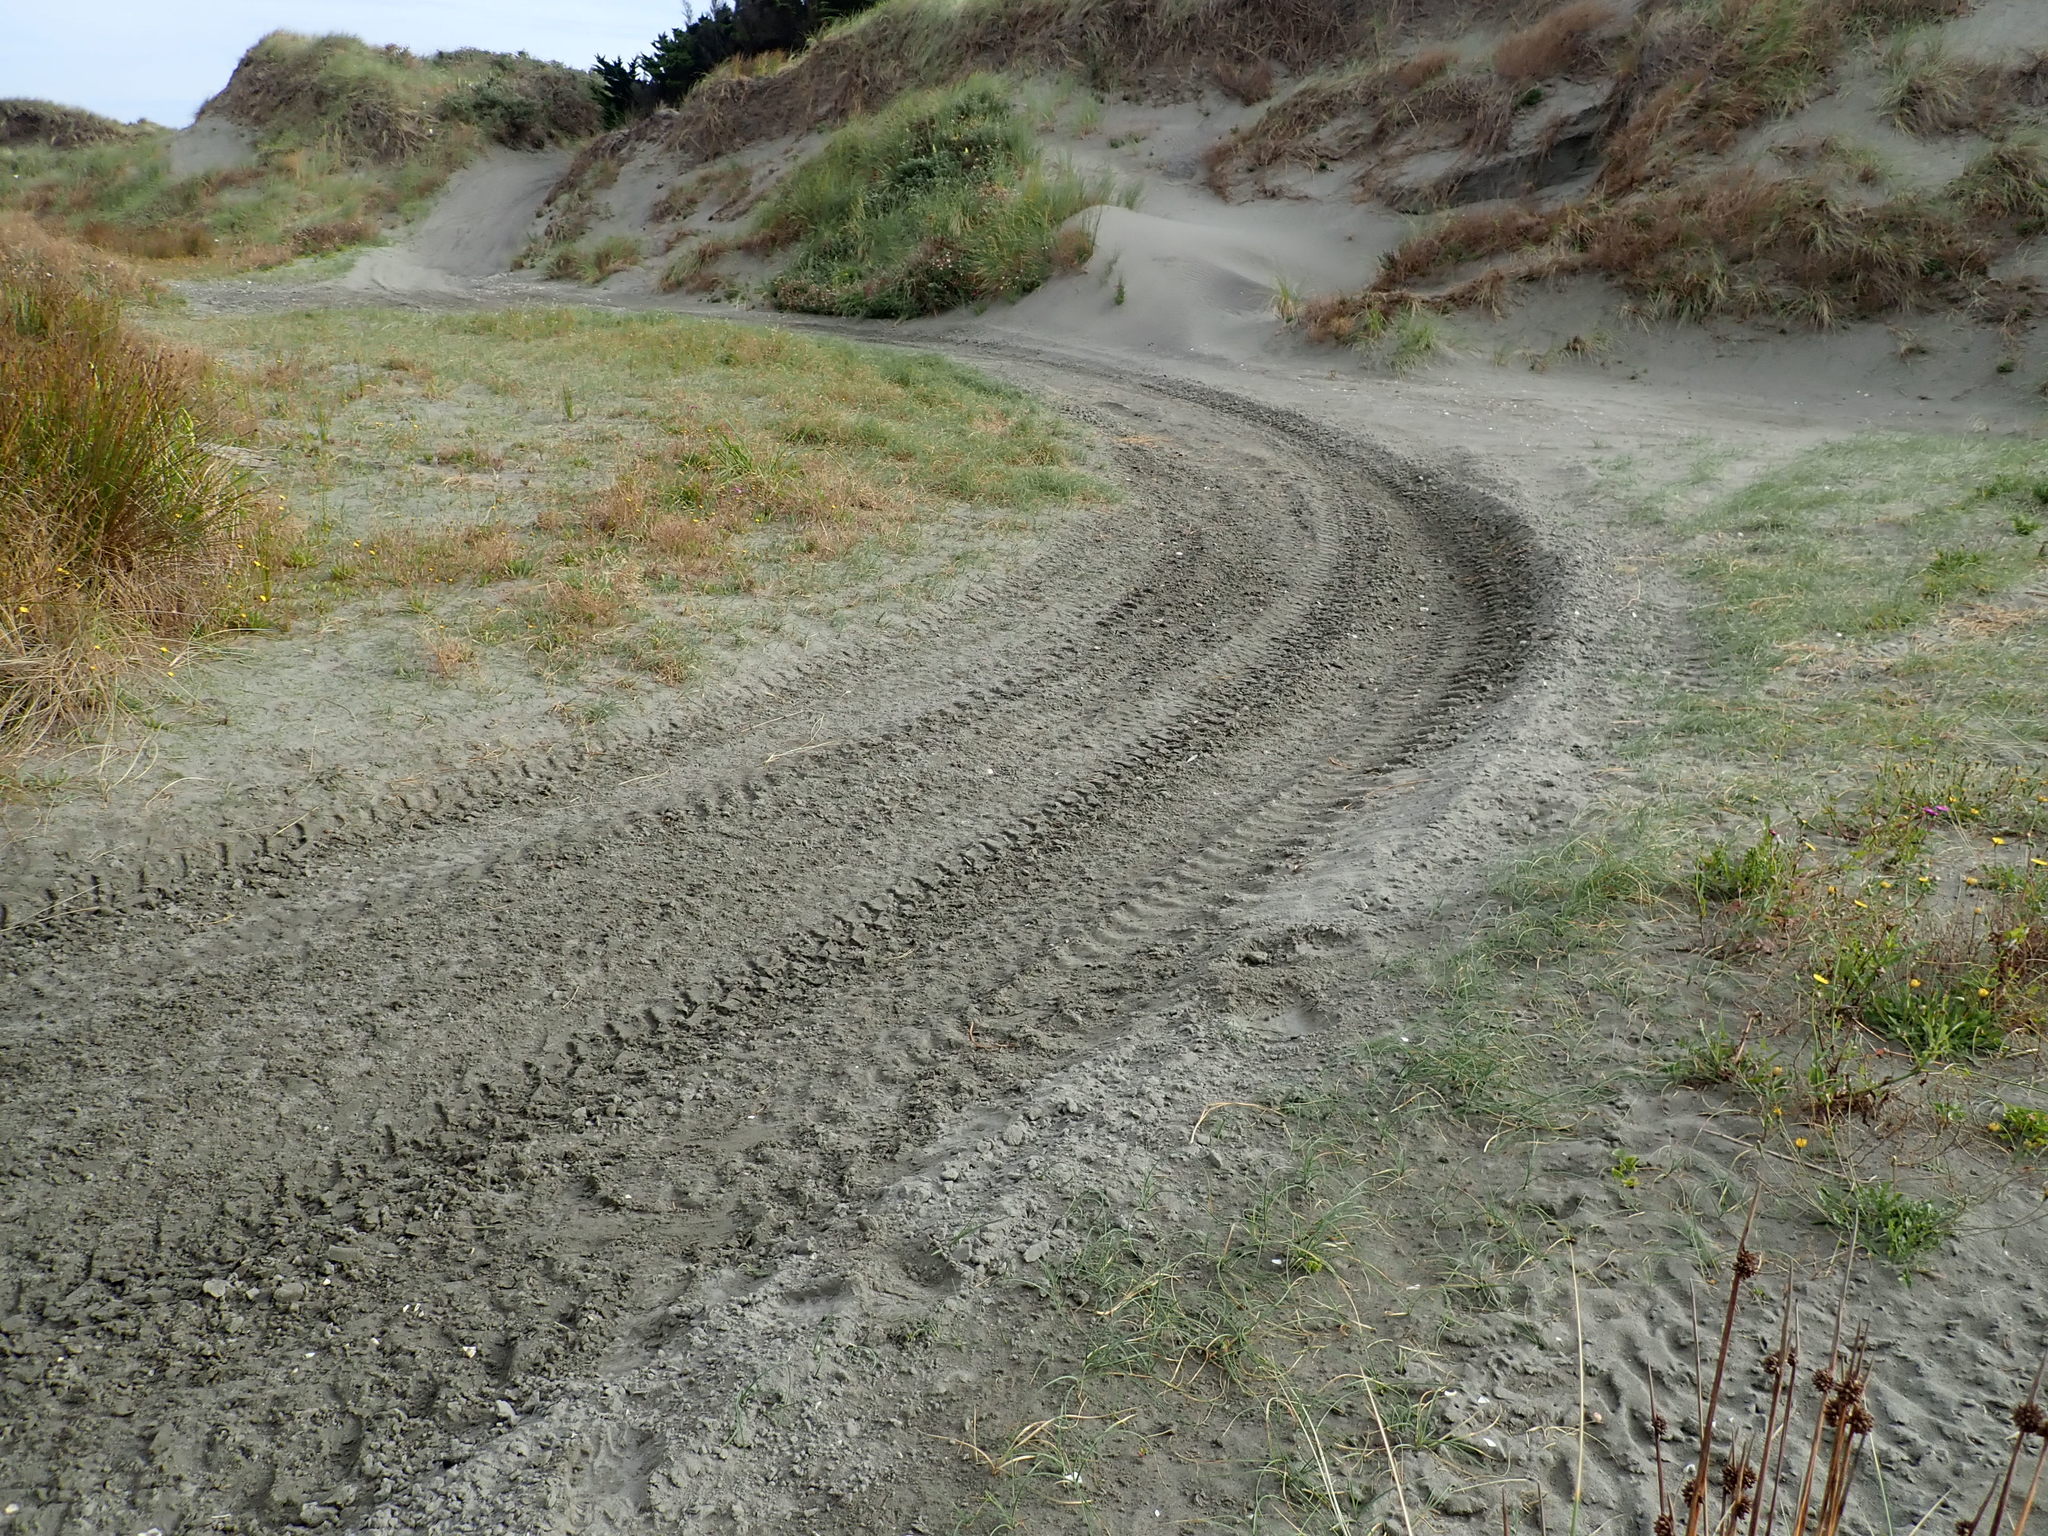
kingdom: Plantae
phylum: Tracheophyta
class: Liliopsida
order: Poales
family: Cyperaceae
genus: Carex
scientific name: Carex pumila
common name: Dwarf sedge
